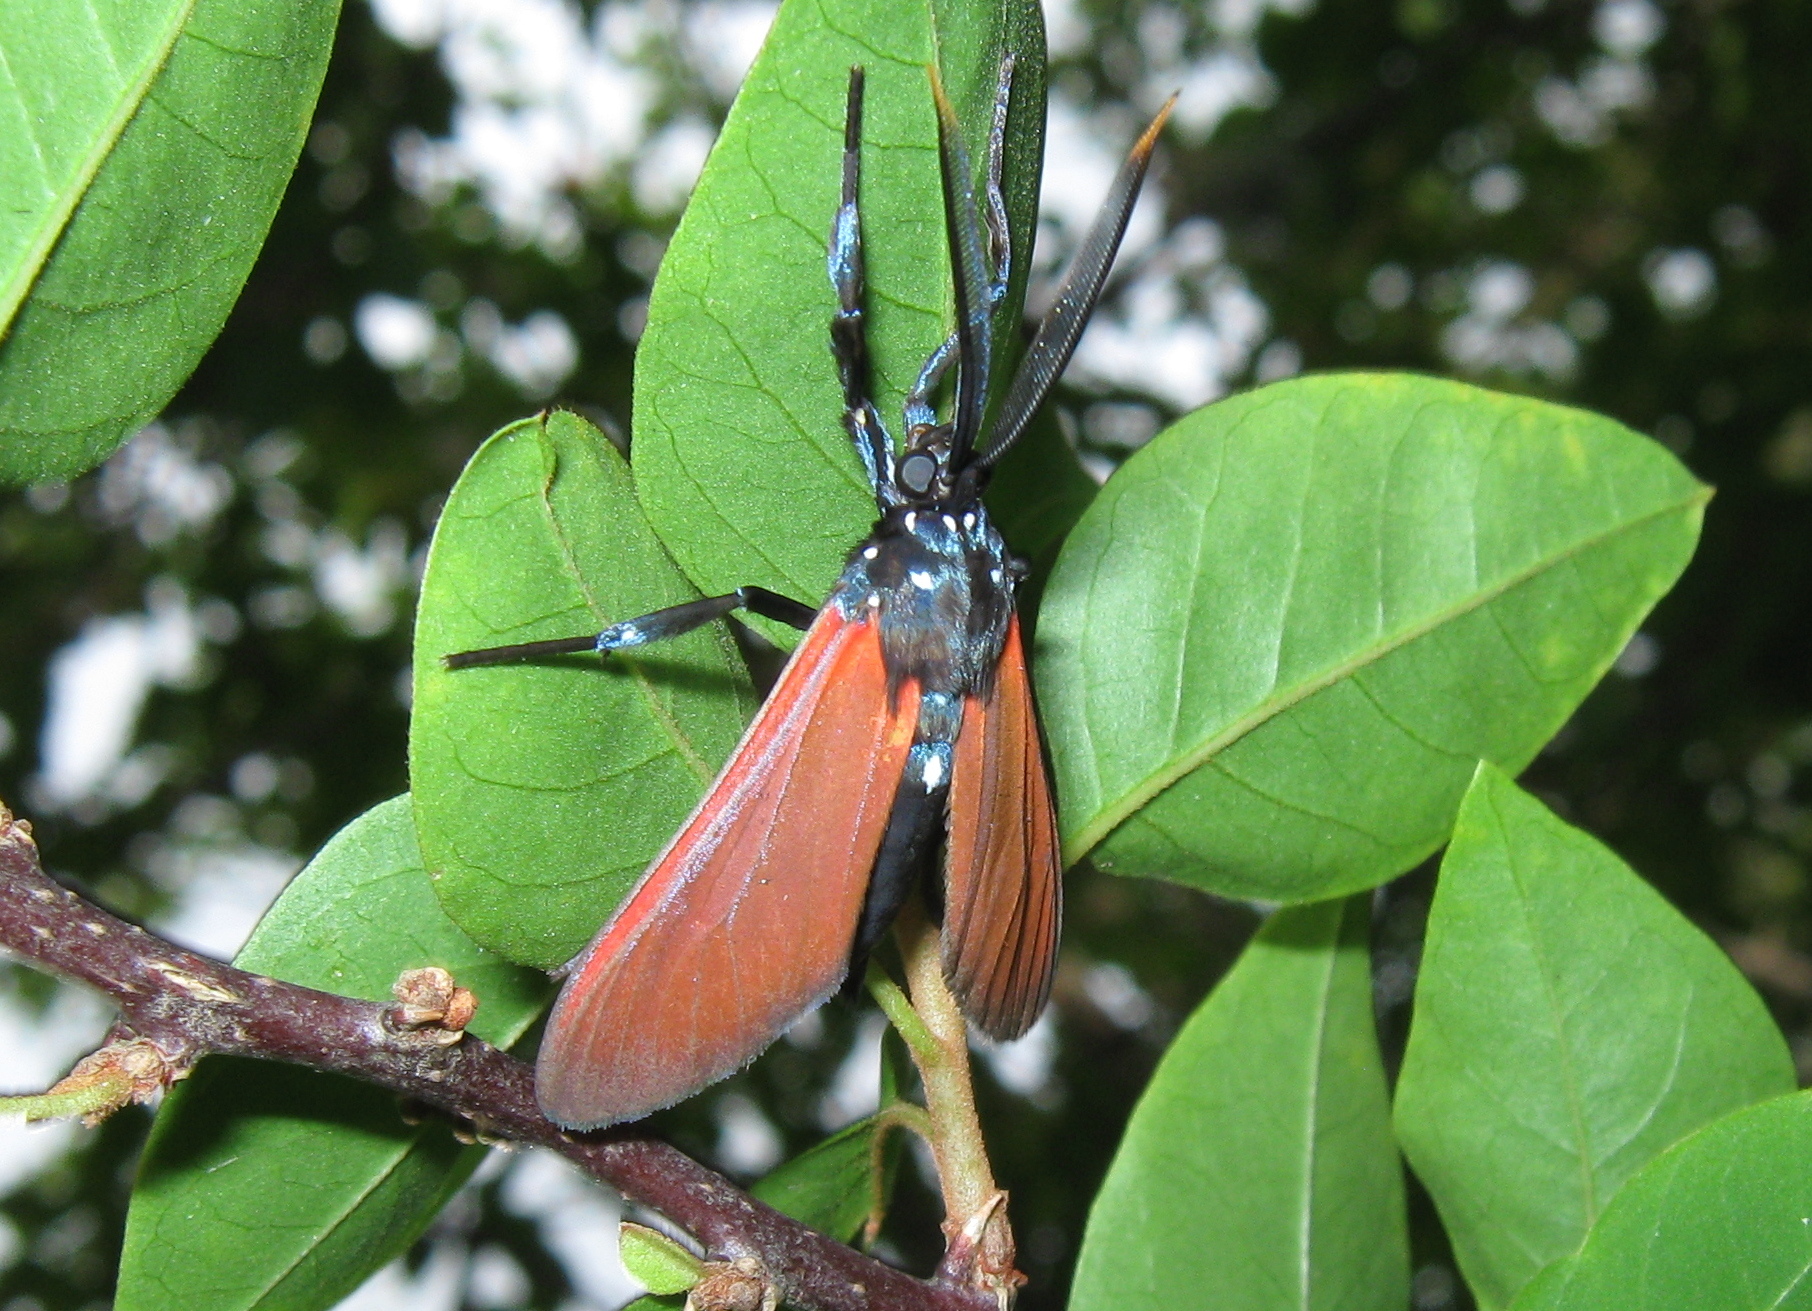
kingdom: Animalia
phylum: Arthropoda
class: Insecta
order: Lepidoptera
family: Erebidae
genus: Empyreuma
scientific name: Empyreuma pugione
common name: Spotted oleander caterpillar moth
